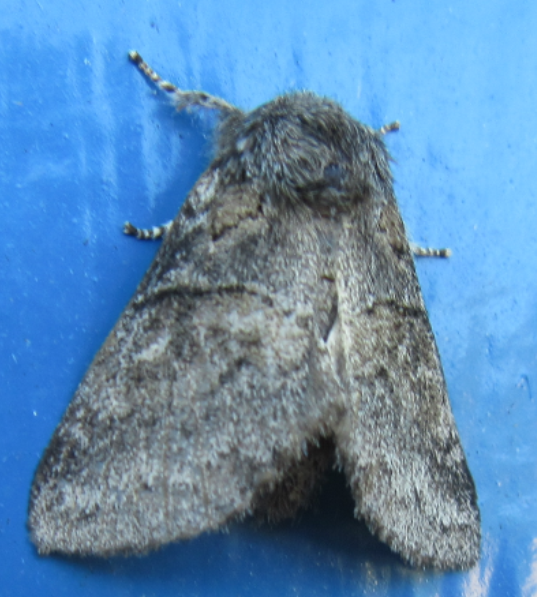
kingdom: Animalia
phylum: Arthropoda
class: Insecta
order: Lepidoptera
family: Notodontidae
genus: Gluphisia
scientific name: Gluphisia septentrionis
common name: Common gluphisia
